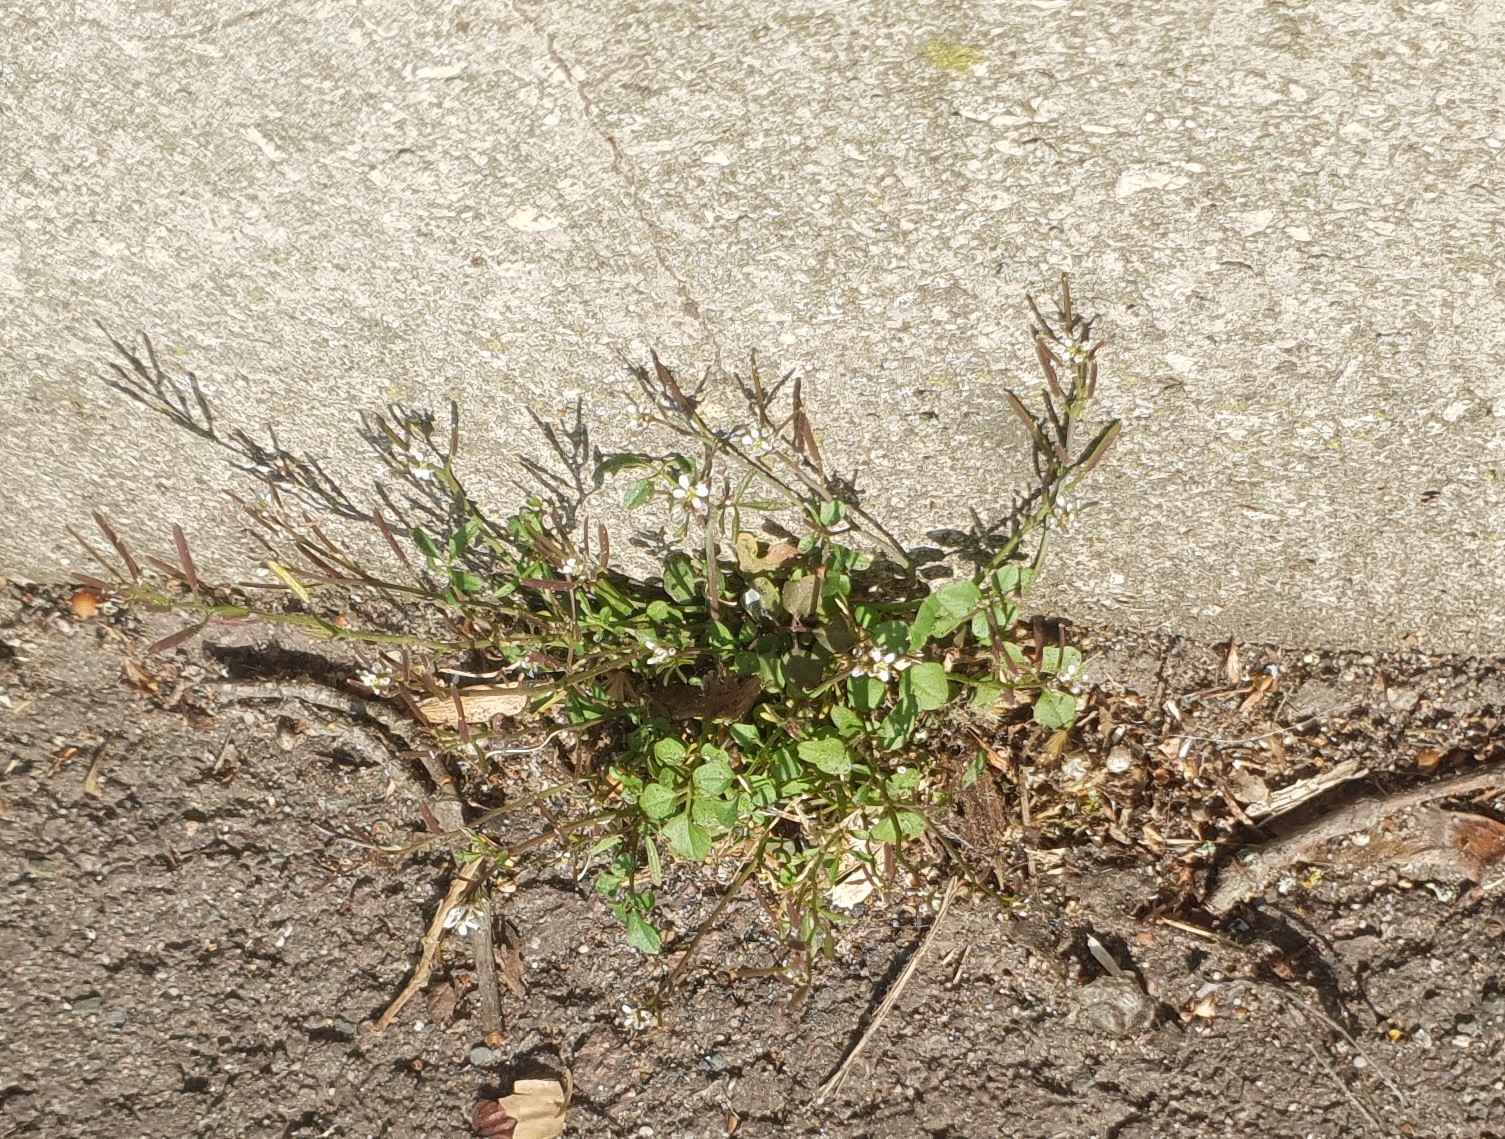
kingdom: Plantae
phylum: Tracheophyta
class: Magnoliopsida
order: Brassicales
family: Brassicaceae
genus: Cardamine
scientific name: Cardamine hirsuta
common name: Hairy bittercress
